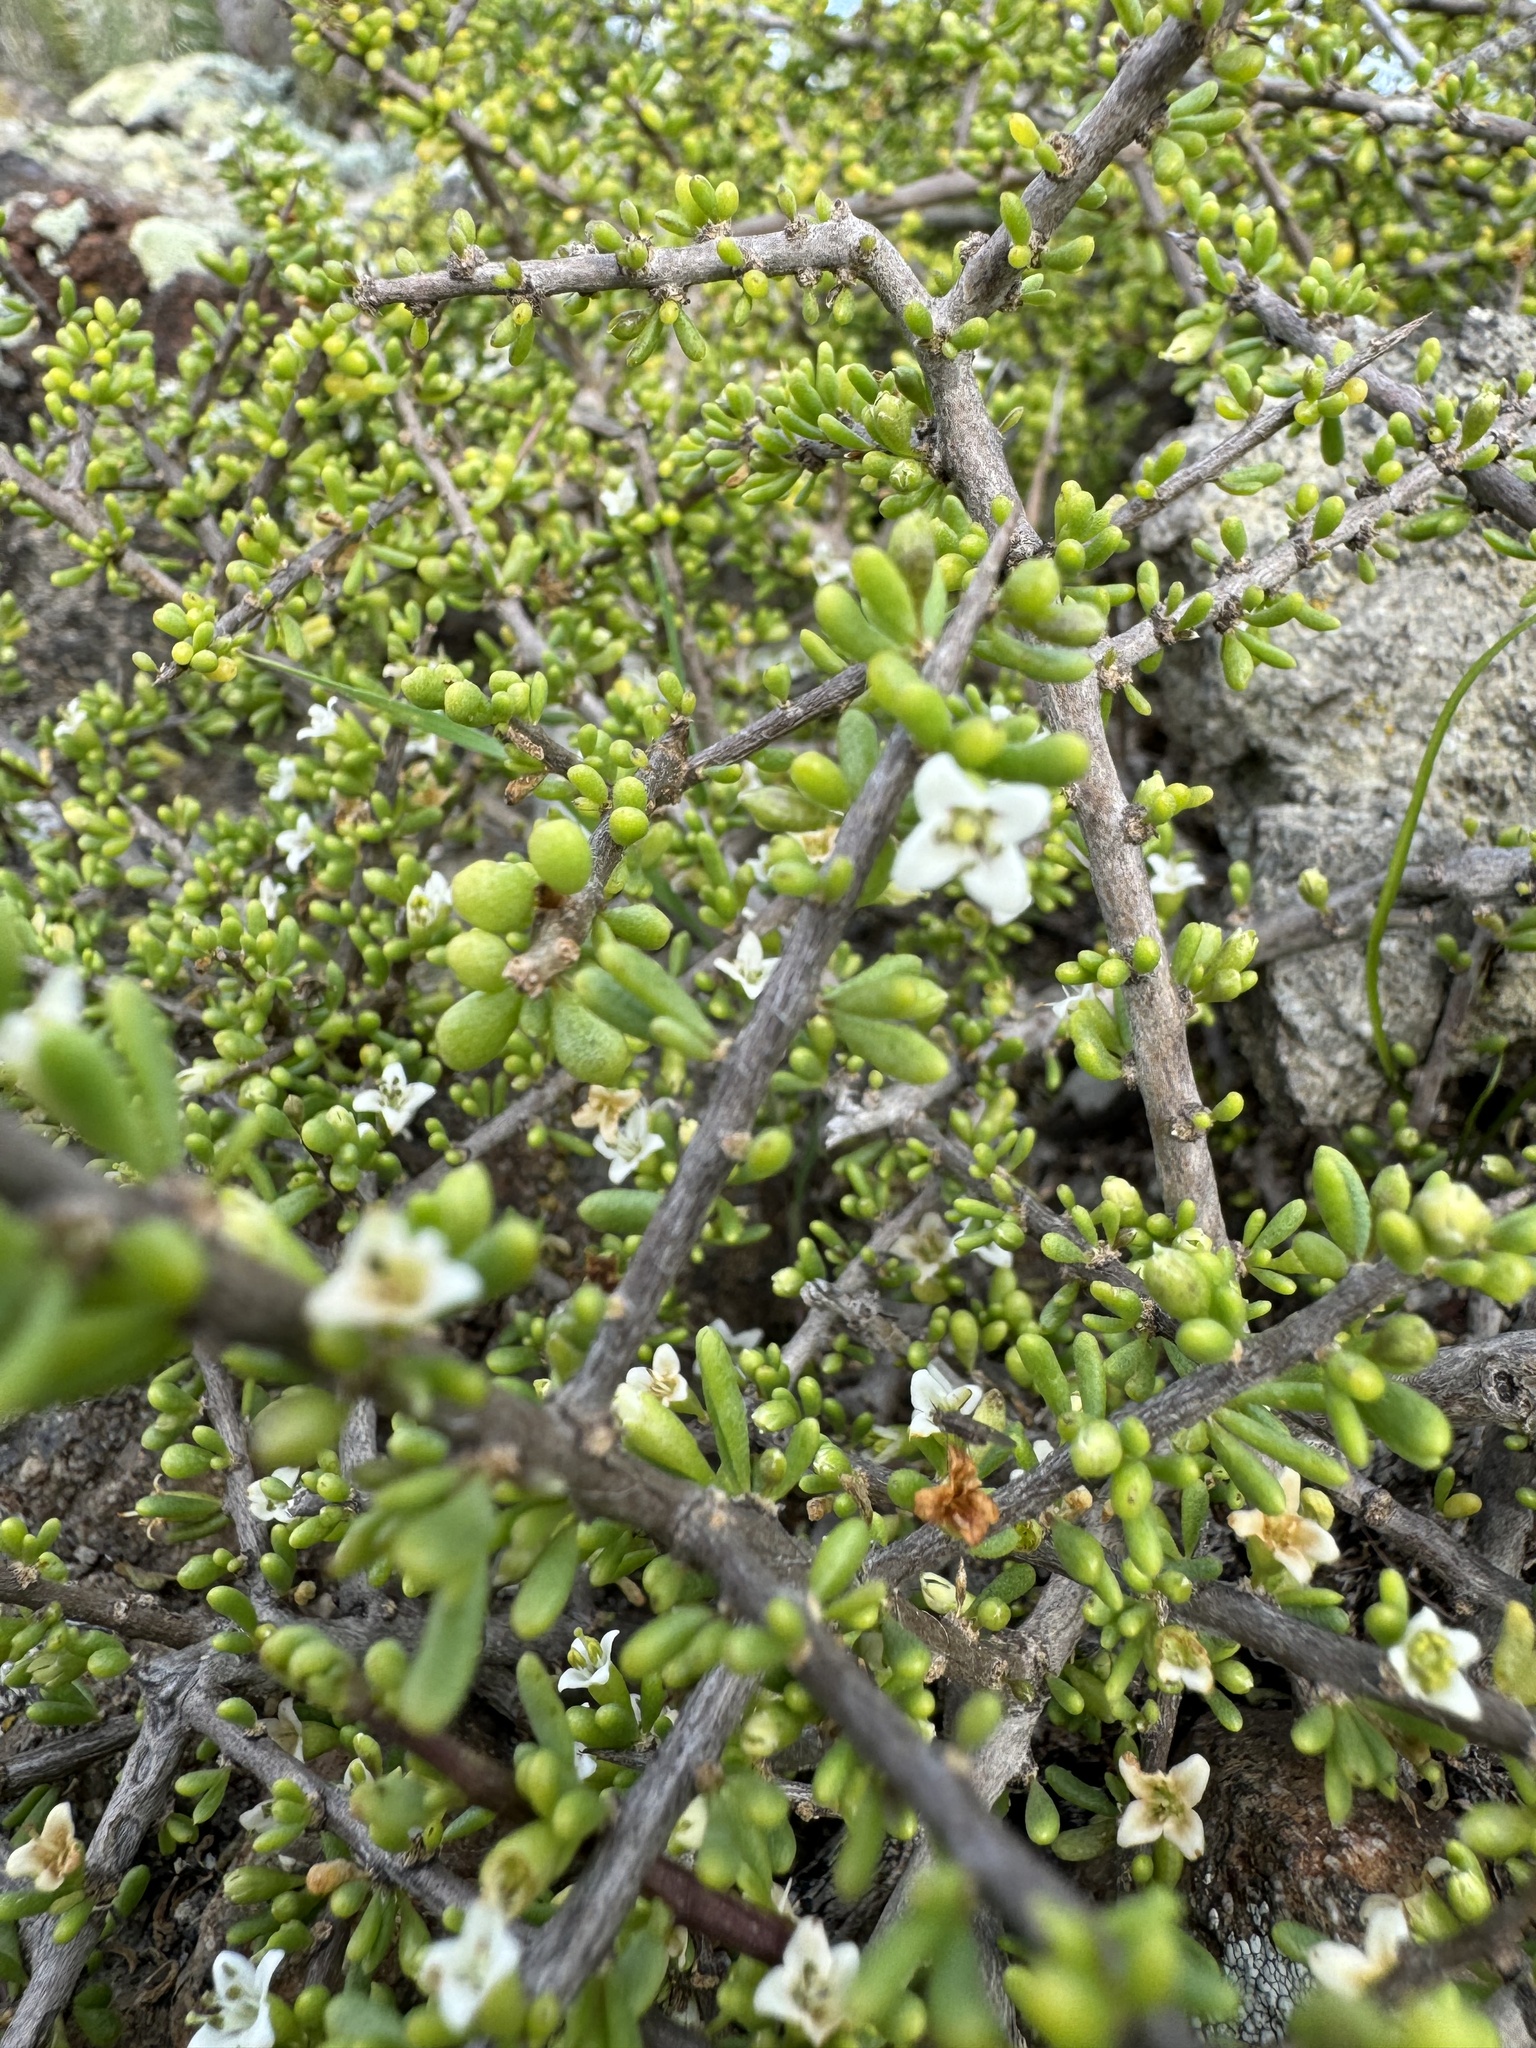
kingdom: Plantae
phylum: Tracheophyta
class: Magnoliopsida
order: Solanales
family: Solanaceae
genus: Lycium
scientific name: Lycium californicum
